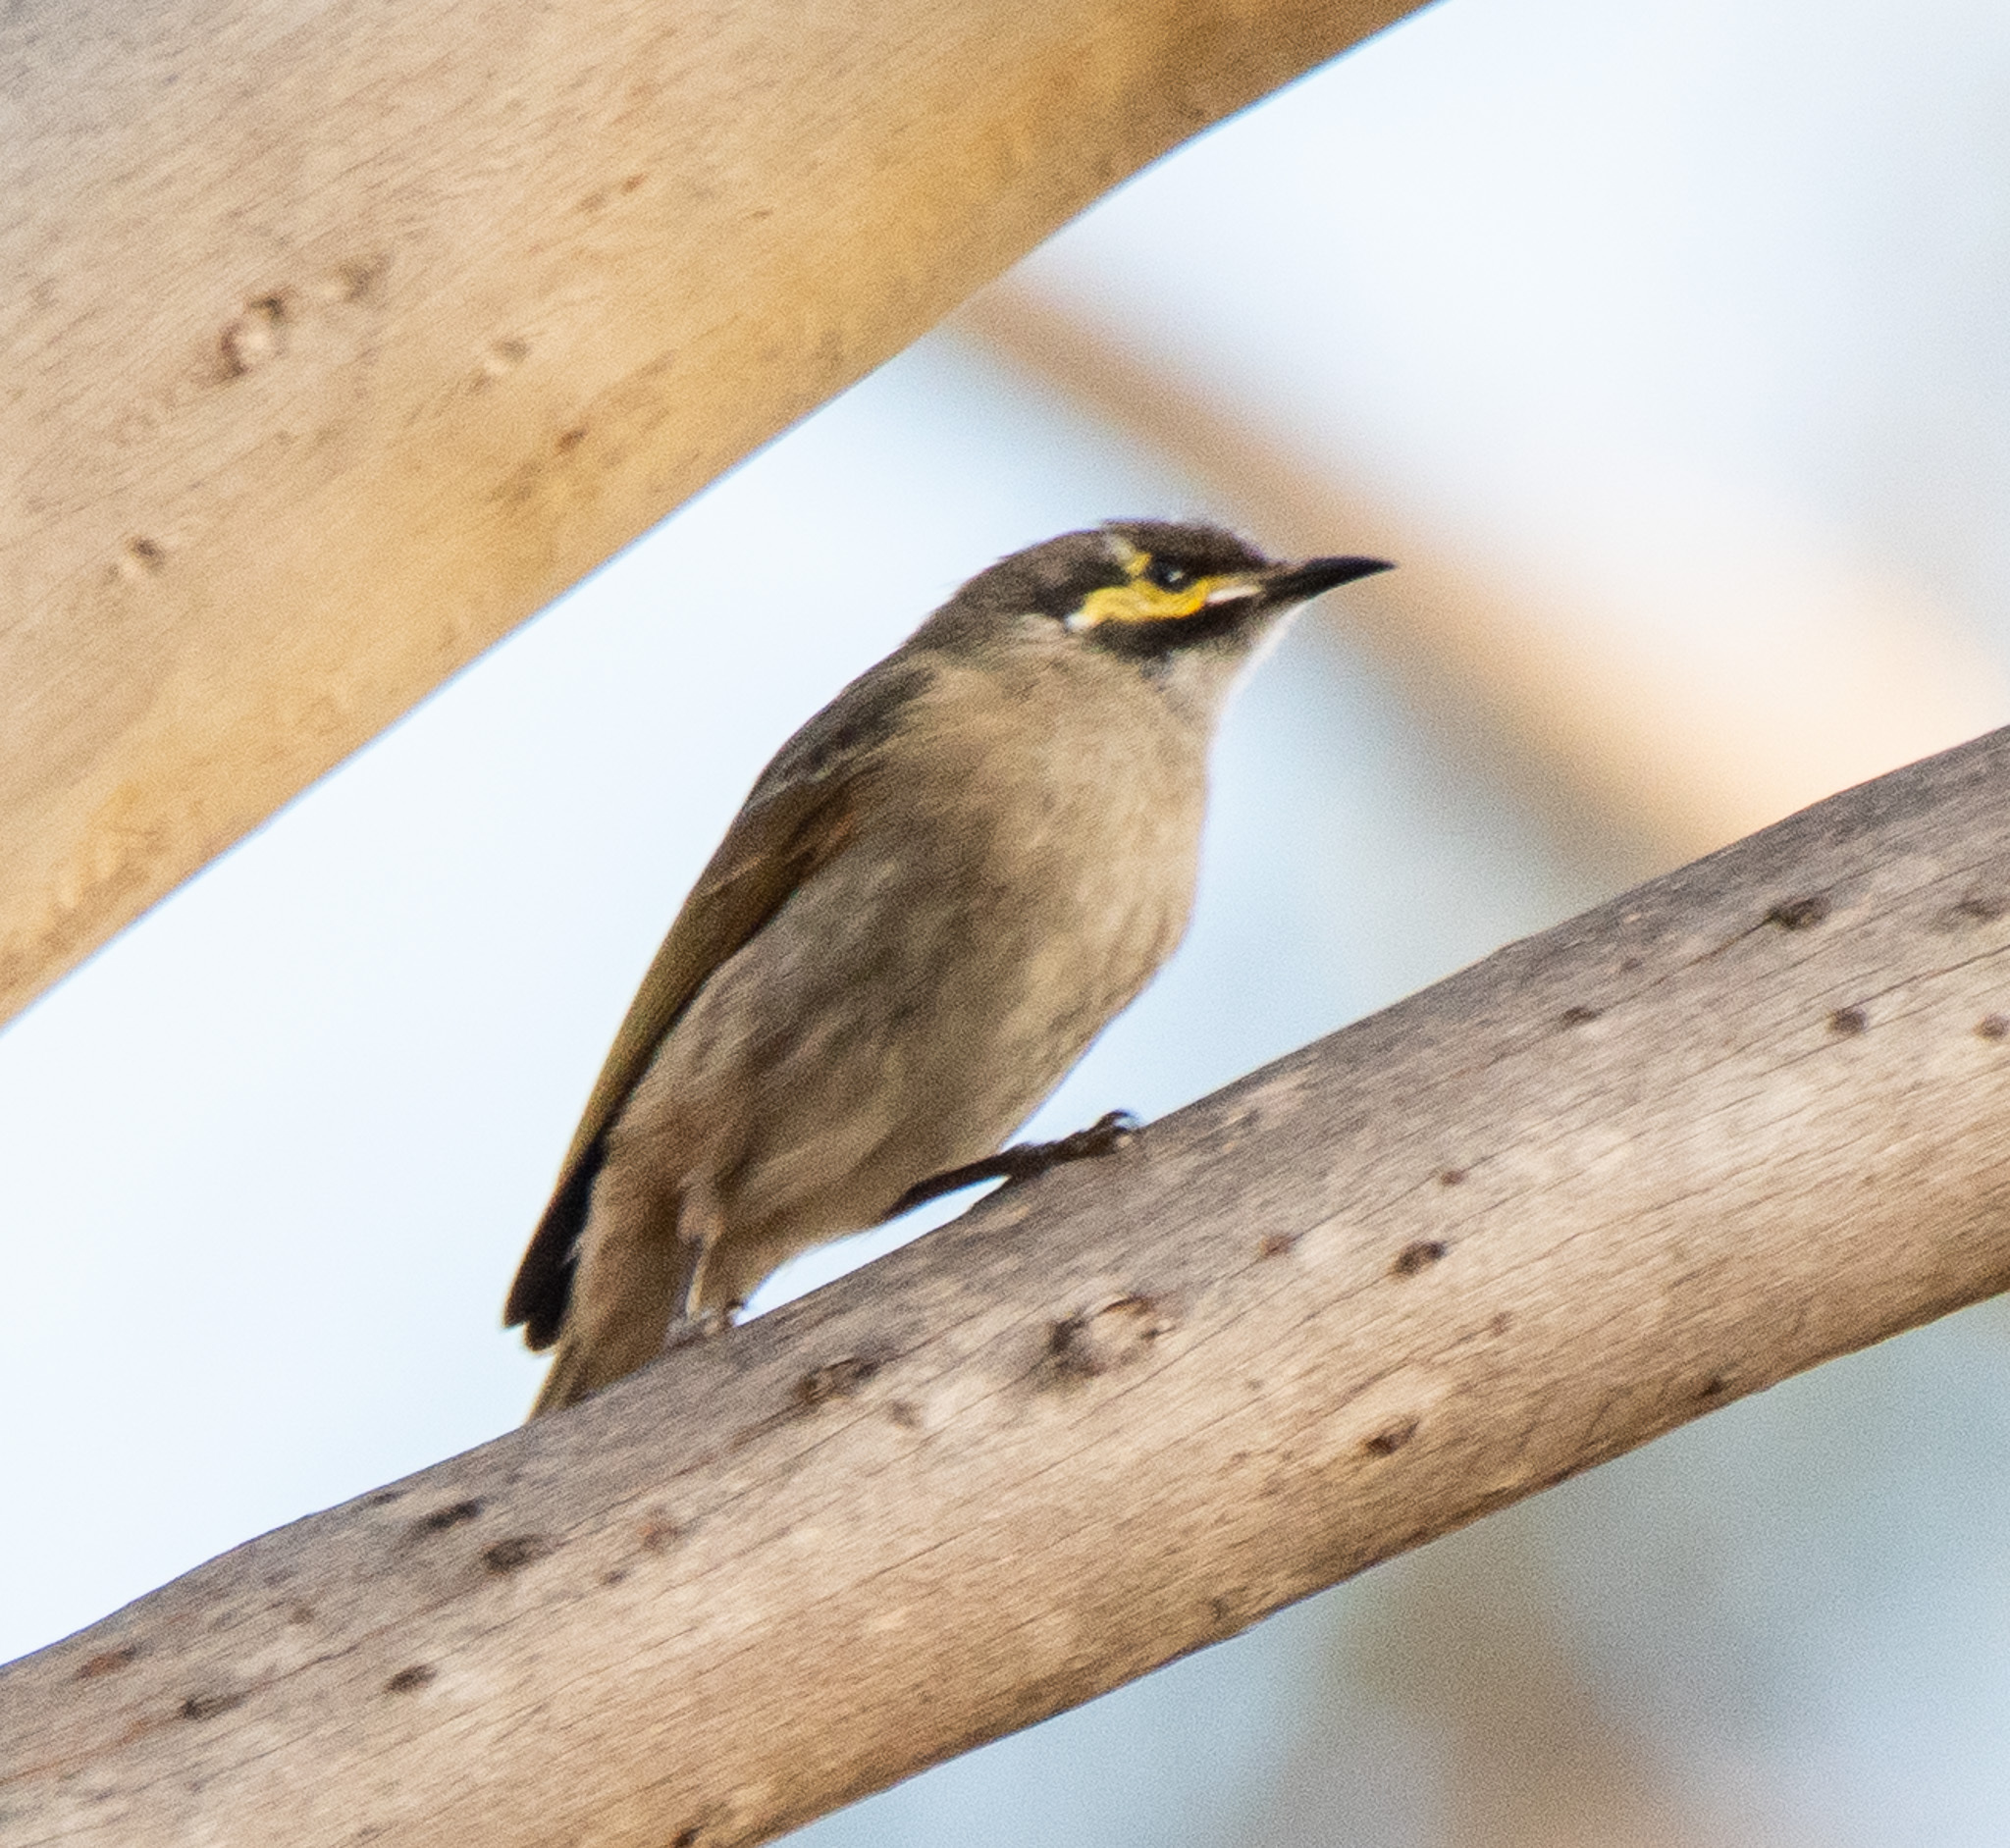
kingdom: Animalia
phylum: Chordata
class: Aves
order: Passeriformes
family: Meliphagidae
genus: Caligavis
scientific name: Caligavis chrysops
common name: Yellow-faced honeyeater
